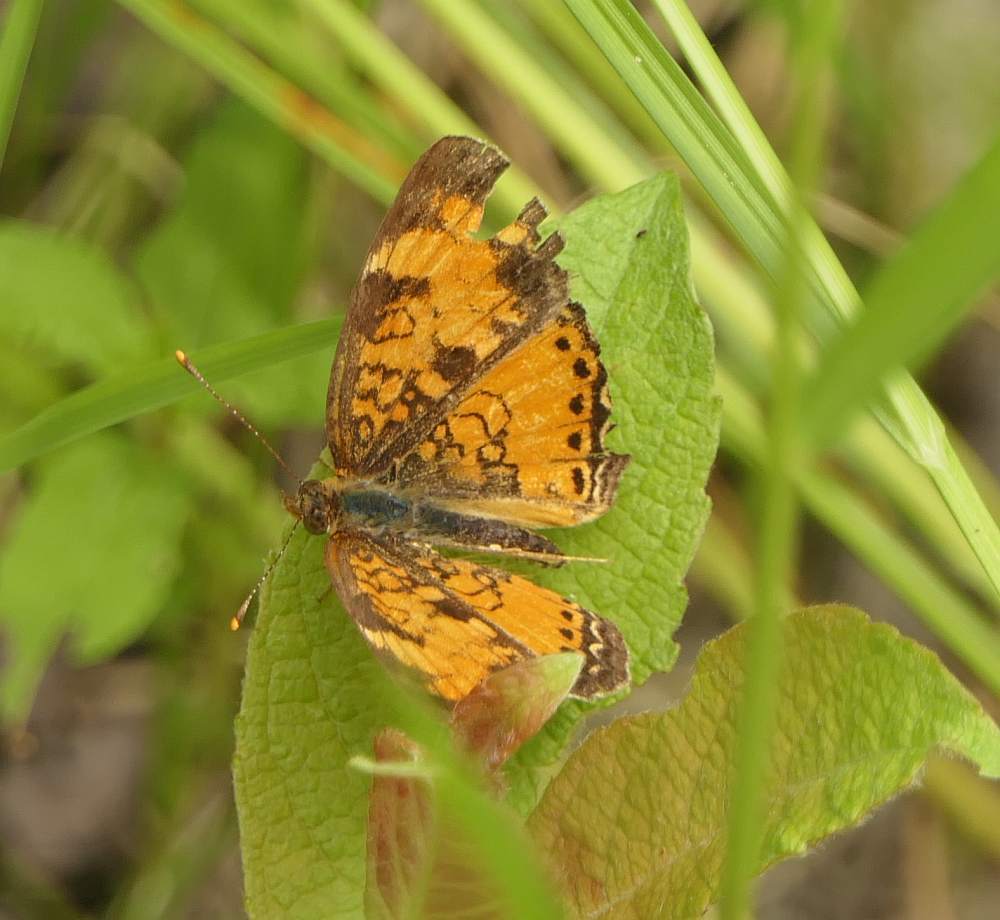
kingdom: Animalia
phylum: Arthropoda
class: Insecta
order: Lepidoptera
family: Nymphalidae
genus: Phyciodes
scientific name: Phyciodes tharos
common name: Pearl crescent
